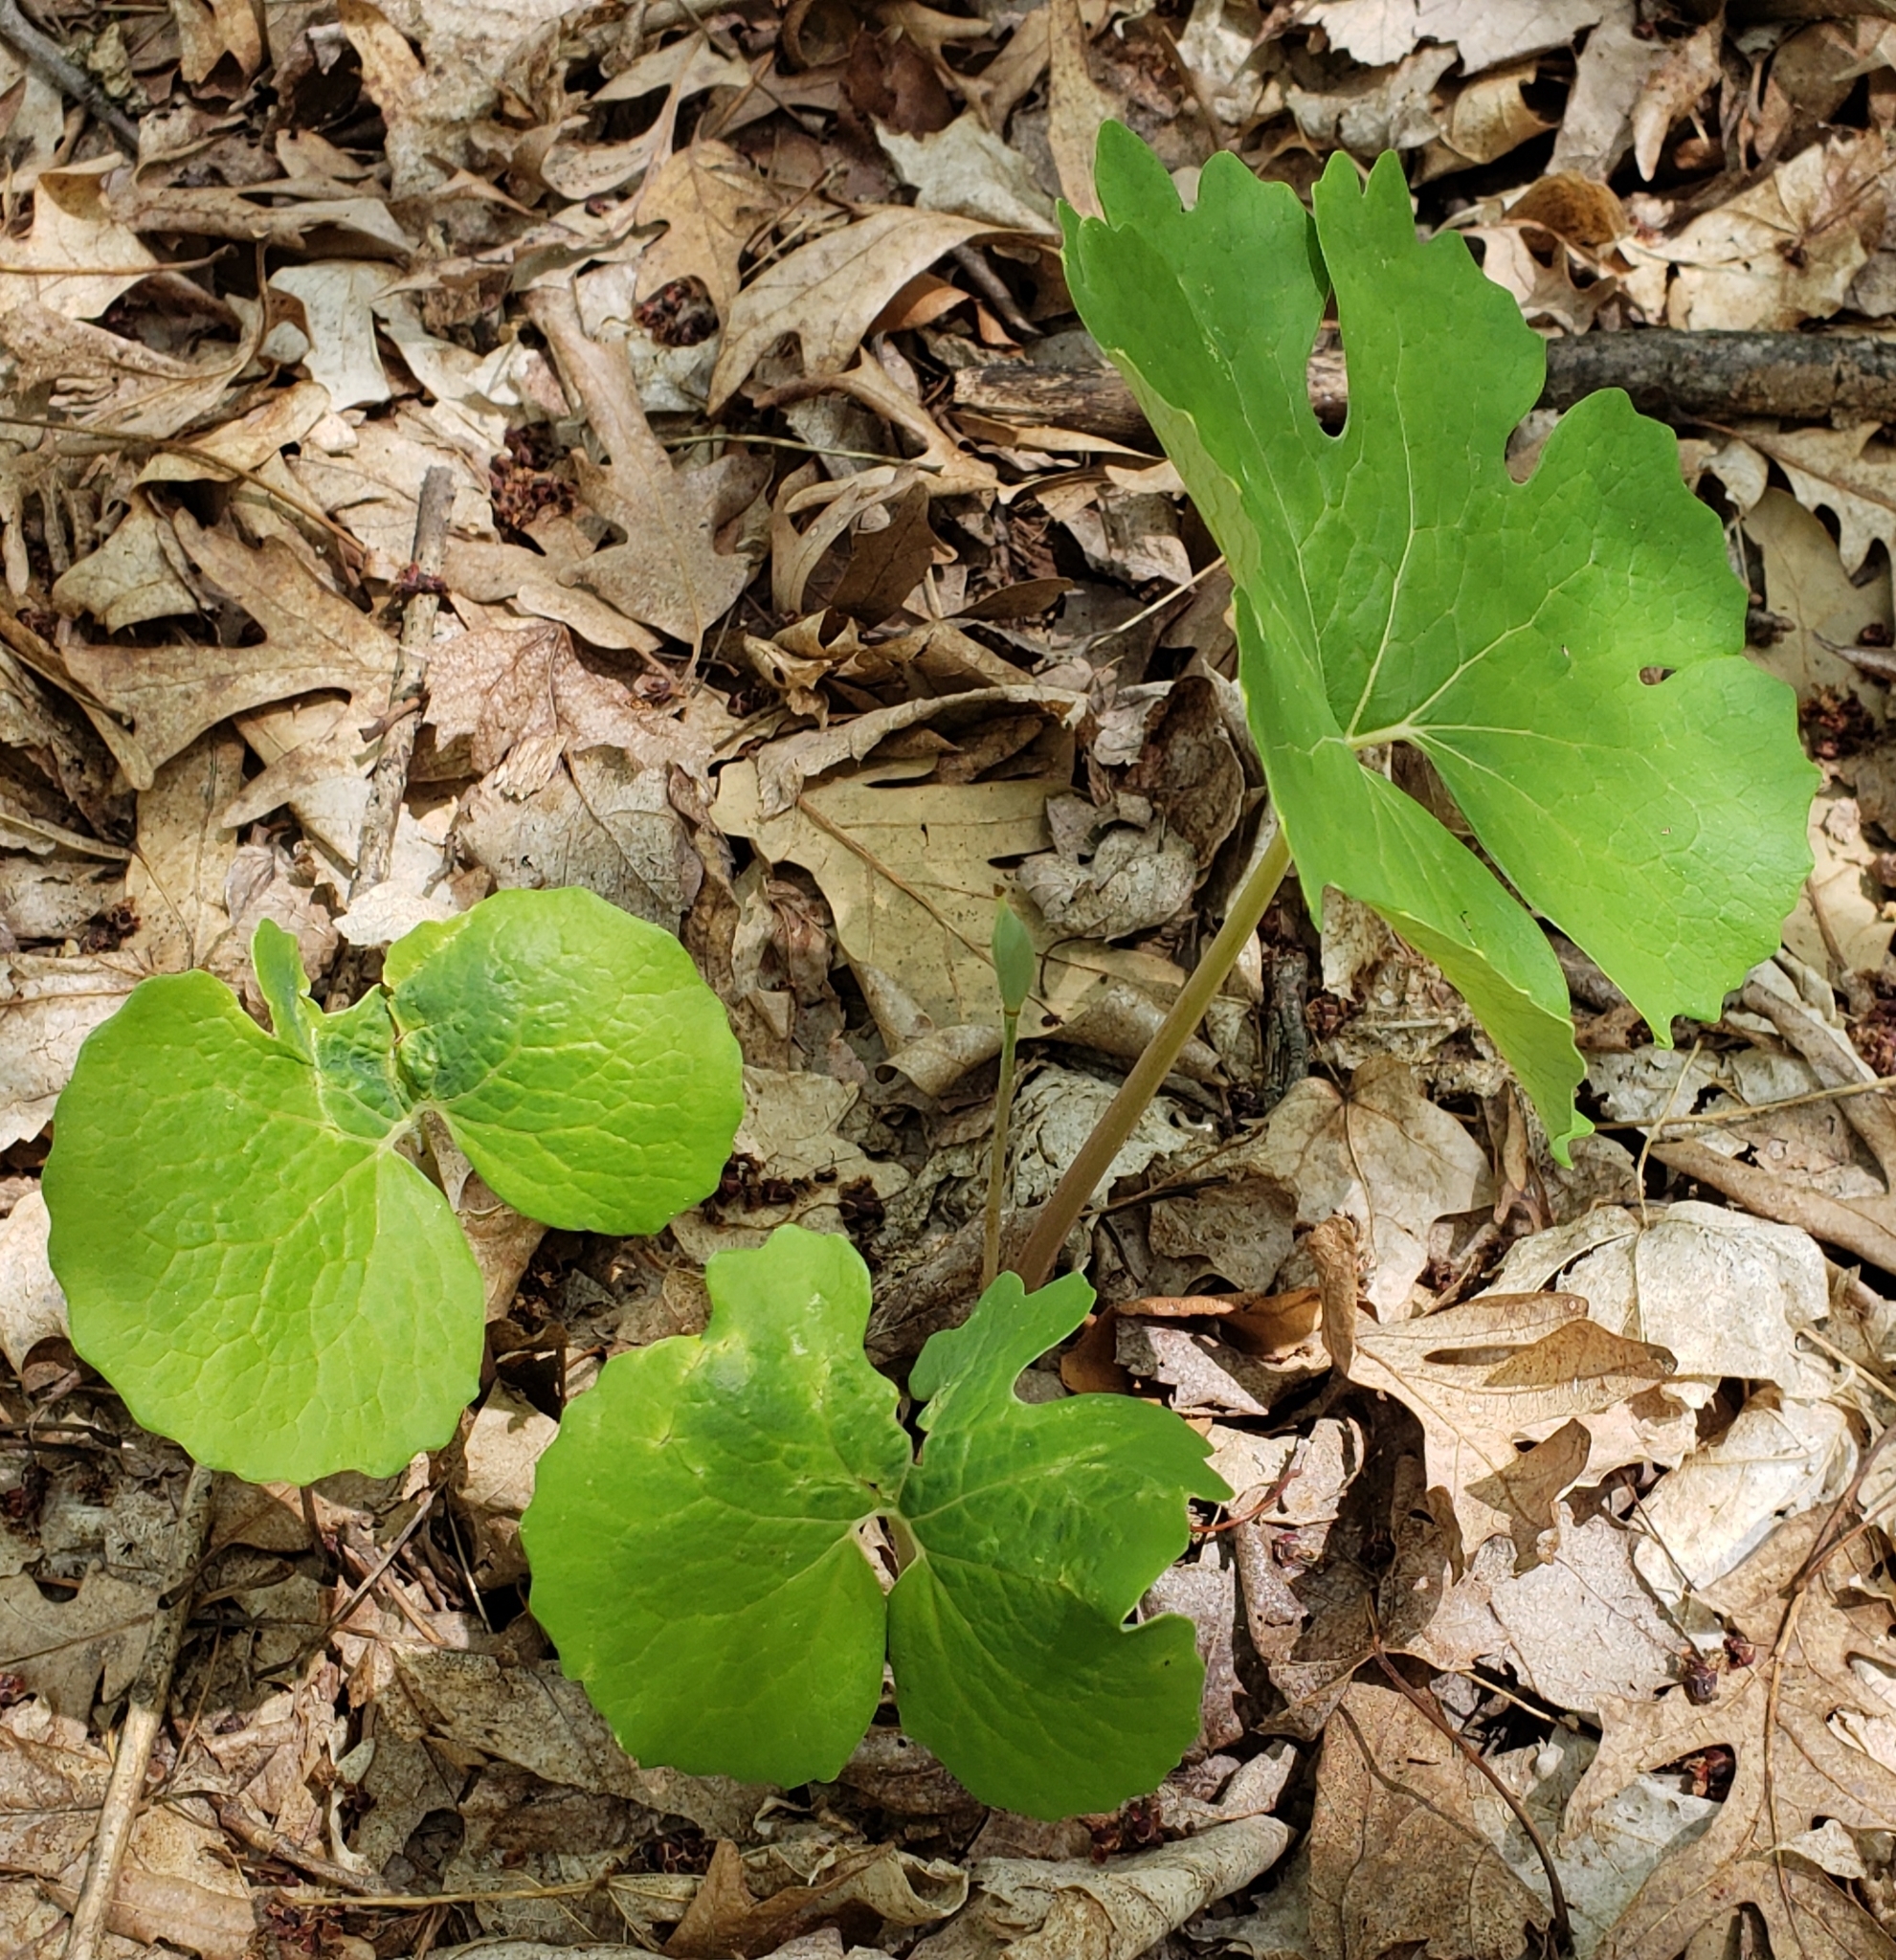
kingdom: Plantae
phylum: Tracheophyta
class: Magnoliopsida
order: Ranunculales
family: Papaveraceae
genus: Sanguinaria
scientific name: Sanguinaria canadensis
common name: Bloodroot
